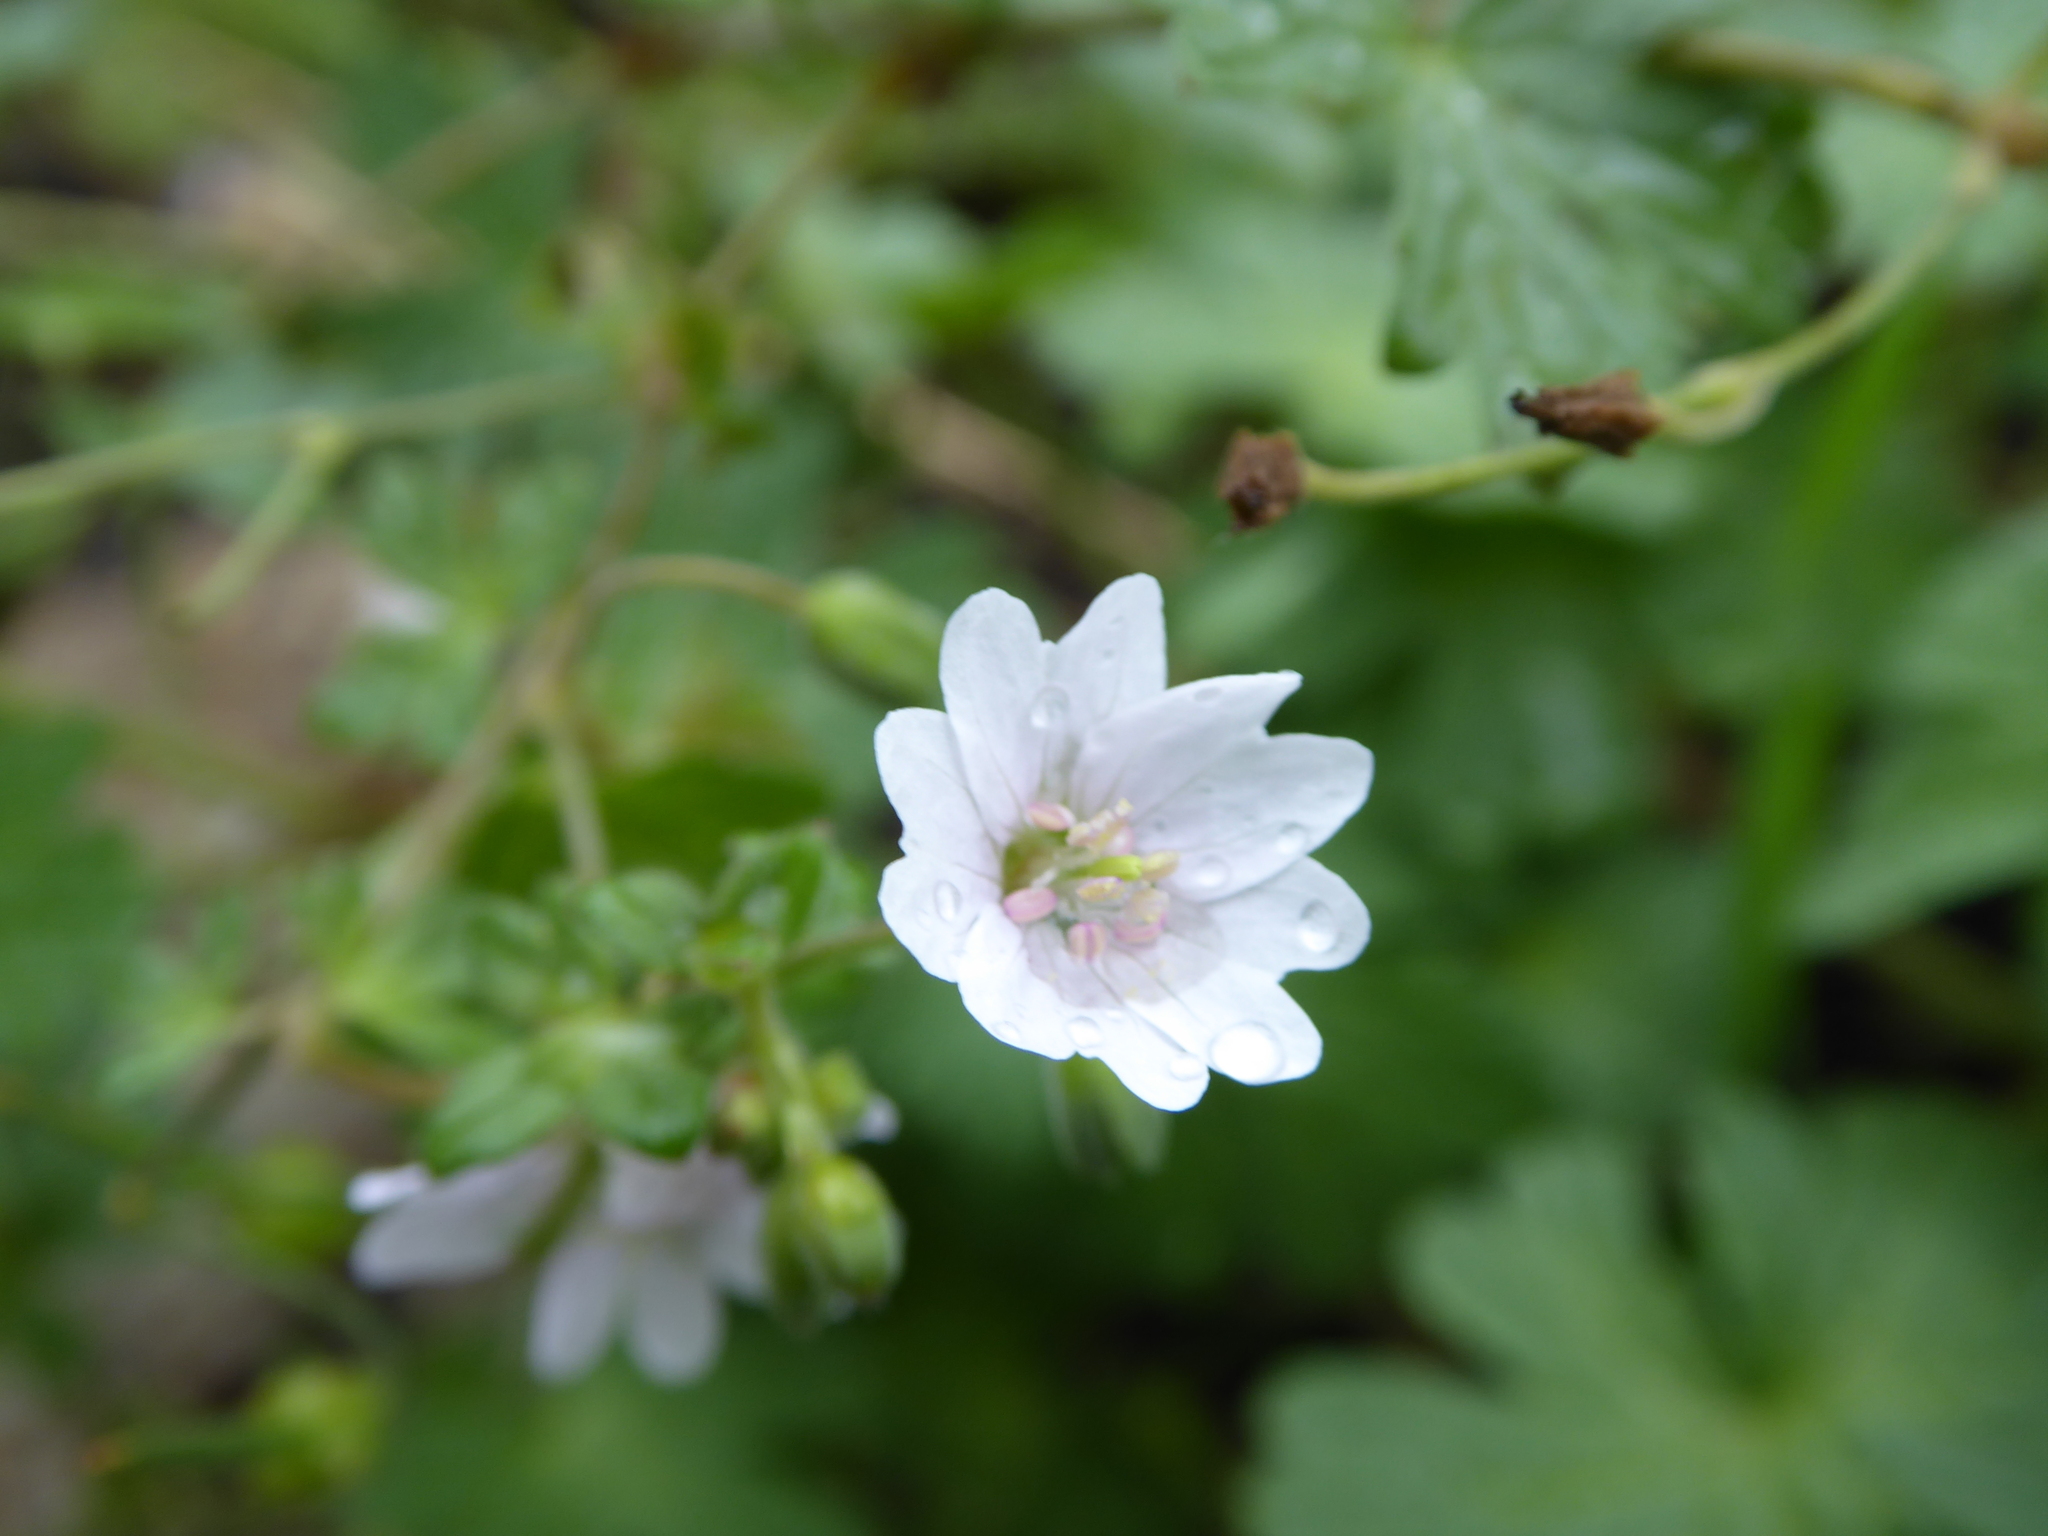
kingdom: Plantae
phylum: Tracheophyta
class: Magnoliopsida
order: Geraniales
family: Geraniaceae
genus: Geranium
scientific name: Geranium pyrenaicum
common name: Hedgerow crane's-bill
